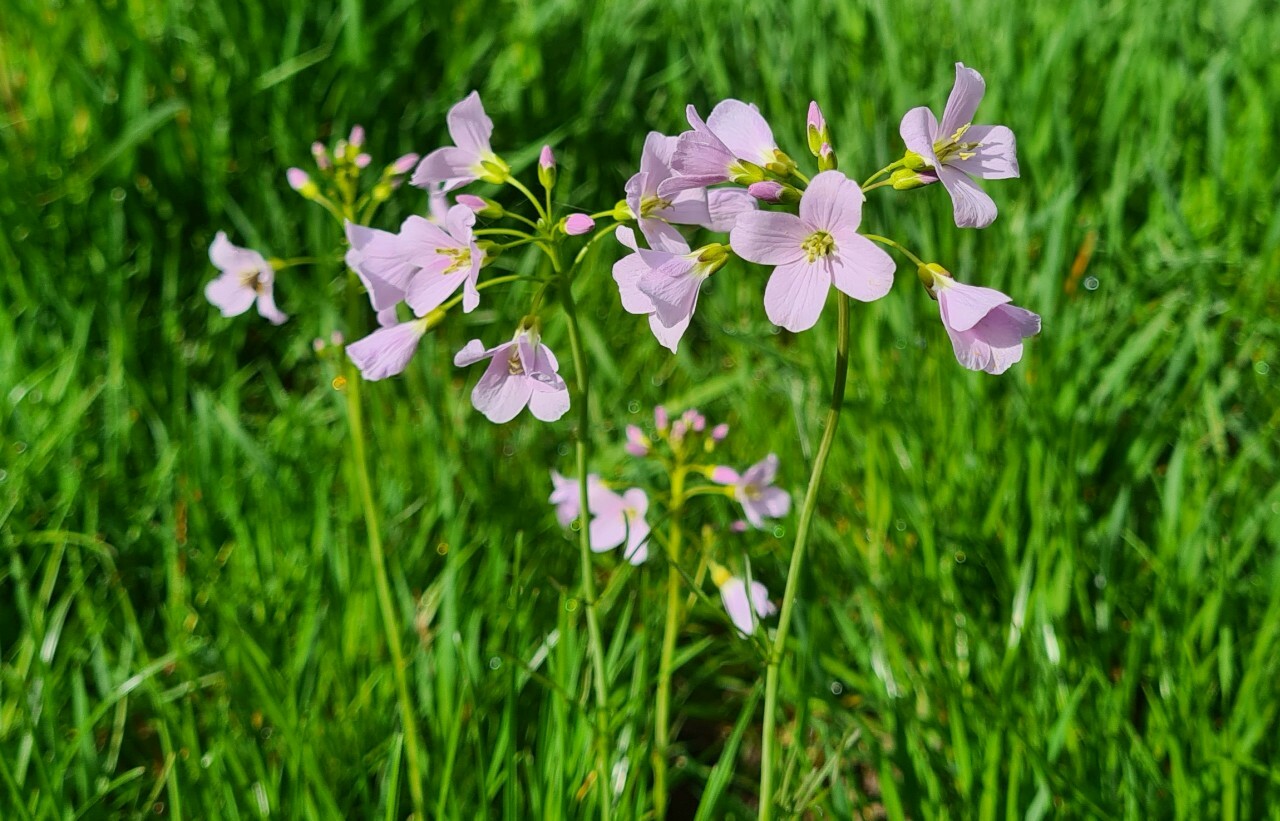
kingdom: Plantae
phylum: Tracheophyta
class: Magnoliopsida
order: Brassicales
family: Brassicaceae
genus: Cardamine
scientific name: Cardamine pratensis
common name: Cuckoo flower
